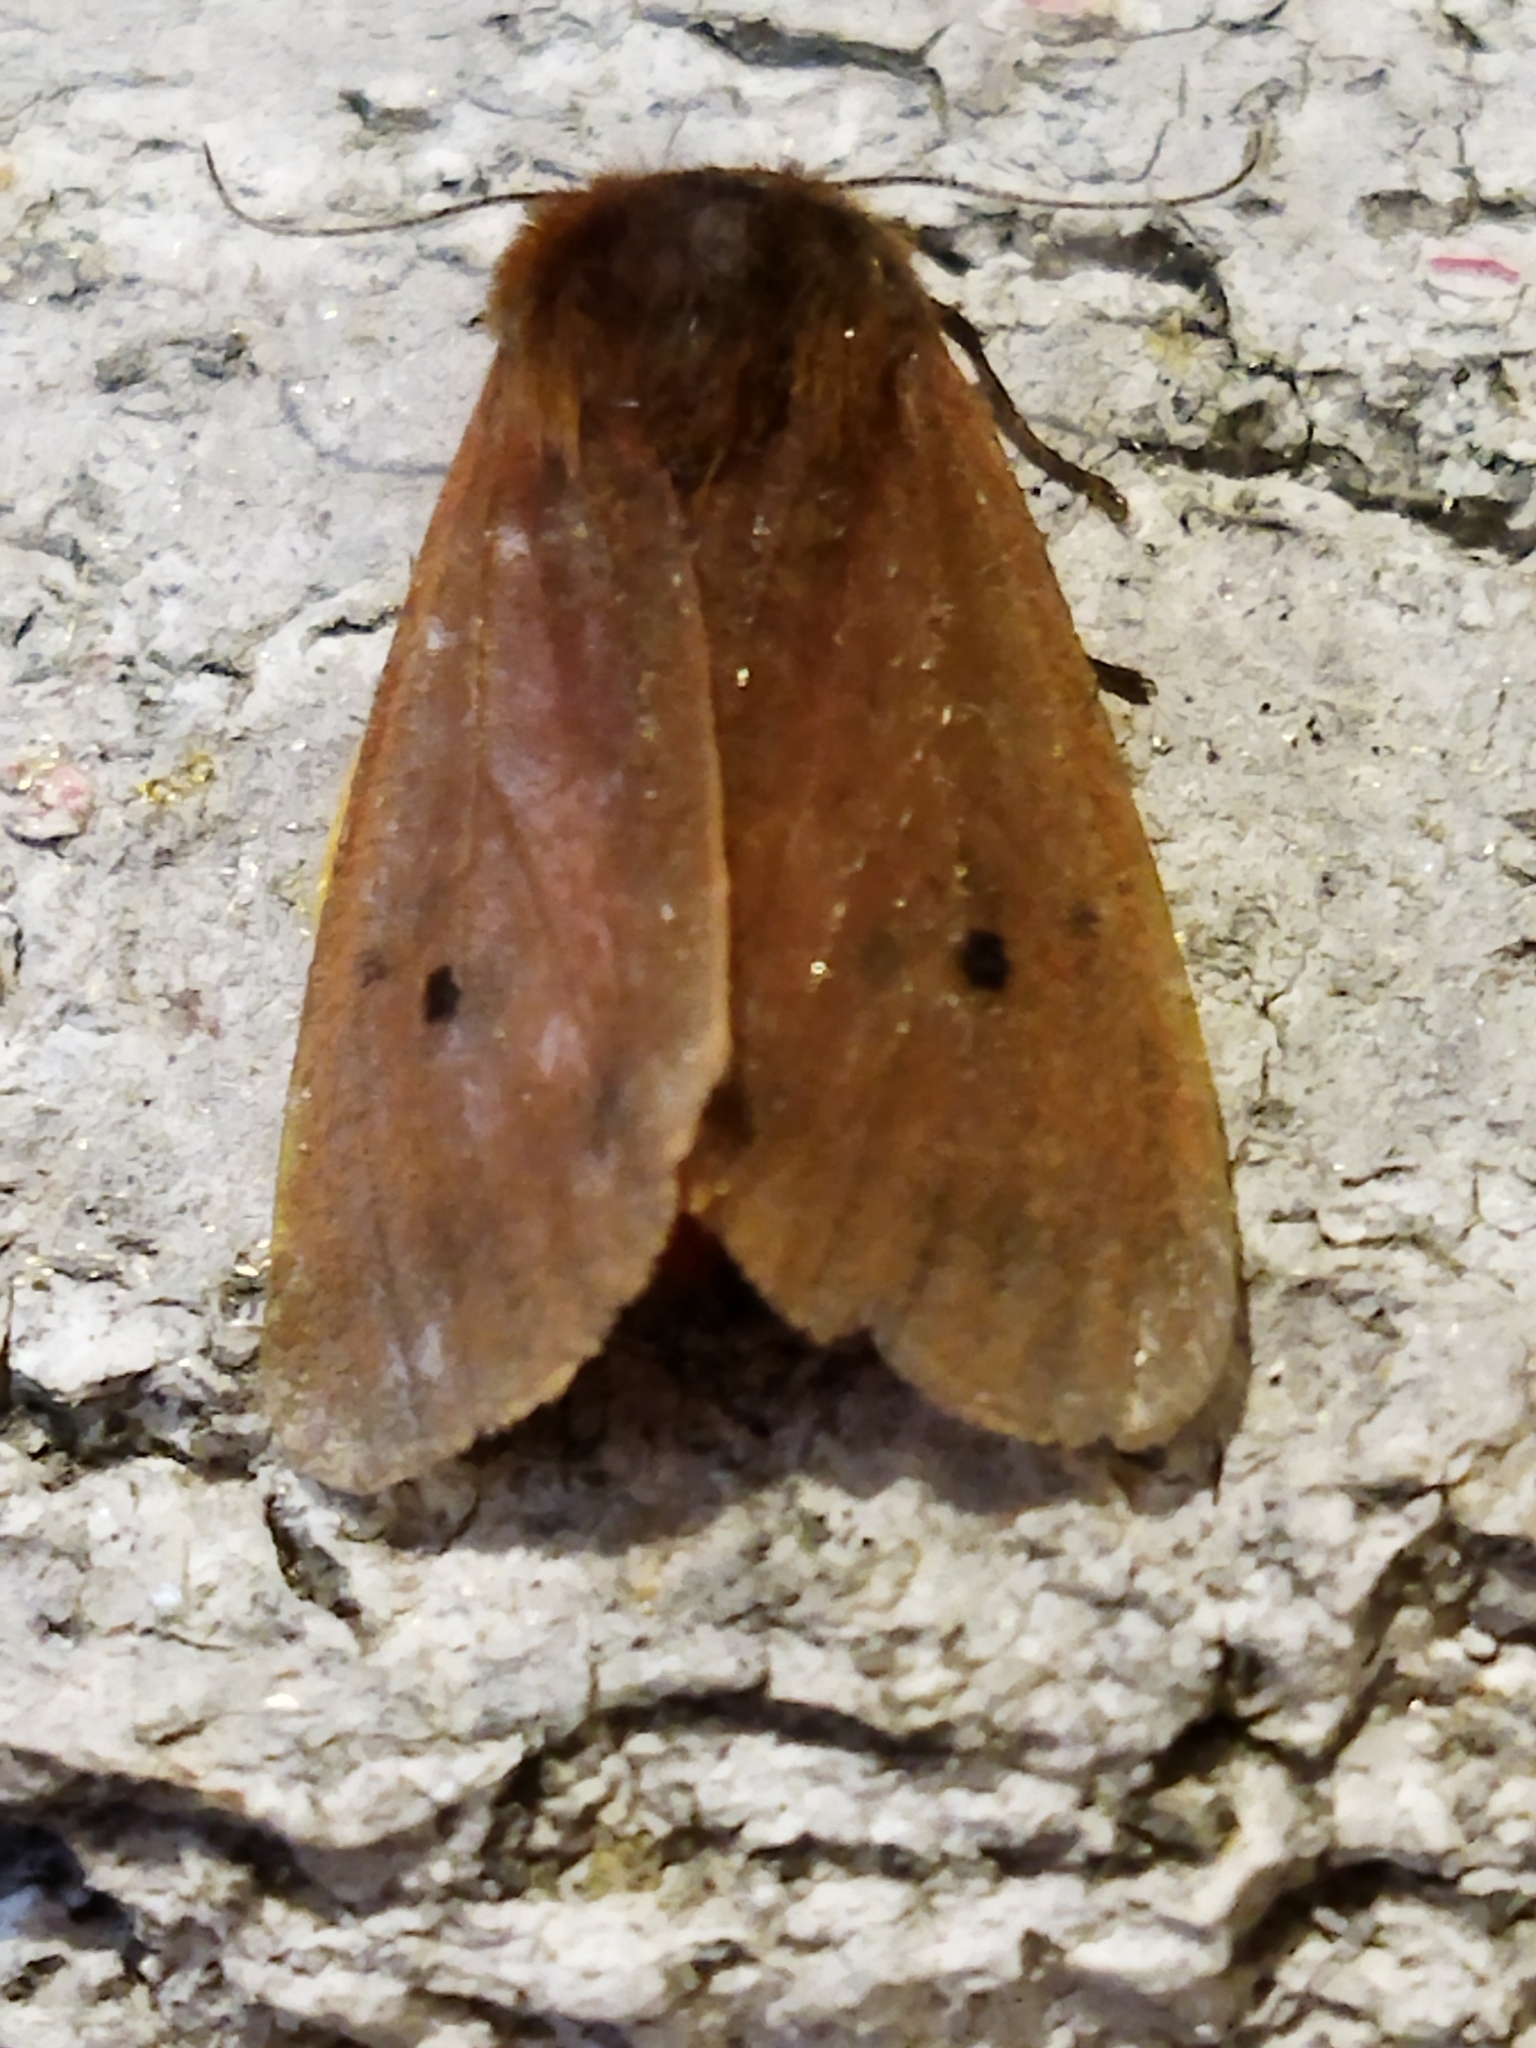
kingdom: Animalia
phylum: Arthropoda
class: Insecta
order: Lepidoptera
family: Erebidae
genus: Phragmatobia
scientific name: Phragmatobia fuliginosa
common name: Ruby tiger
